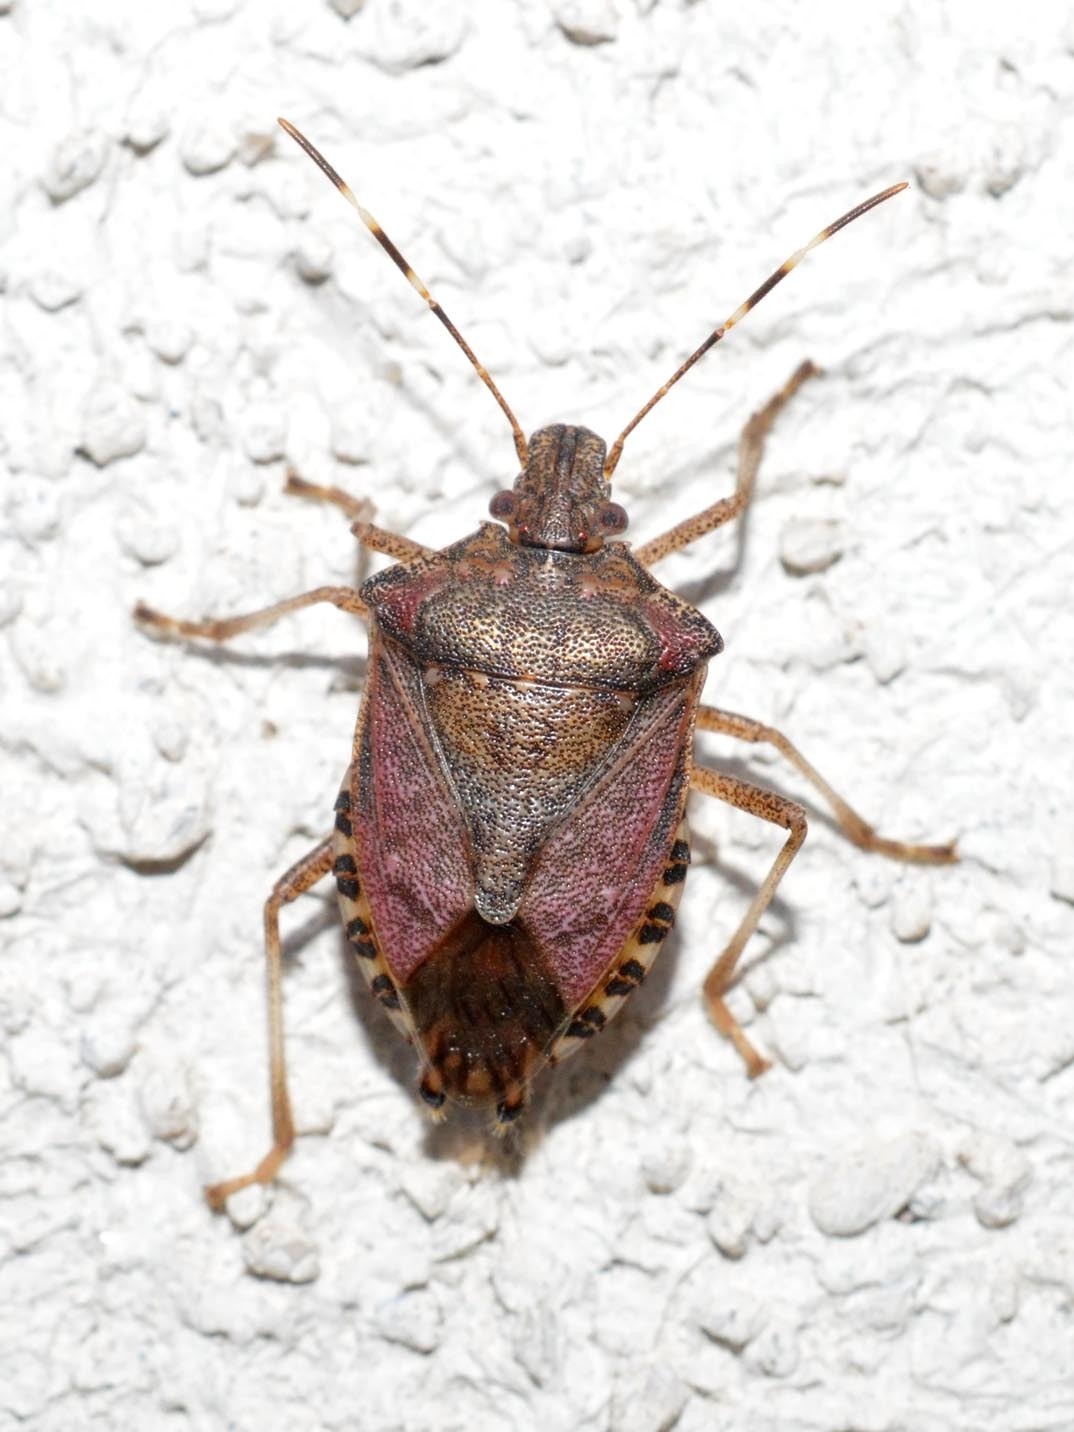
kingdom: Animalia
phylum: Arthropoda
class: Insecta
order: Hemiptera
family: Pentatomidae
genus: Halyomorpha
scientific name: Halyomorpha halys
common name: Brown marmorated stink bug
